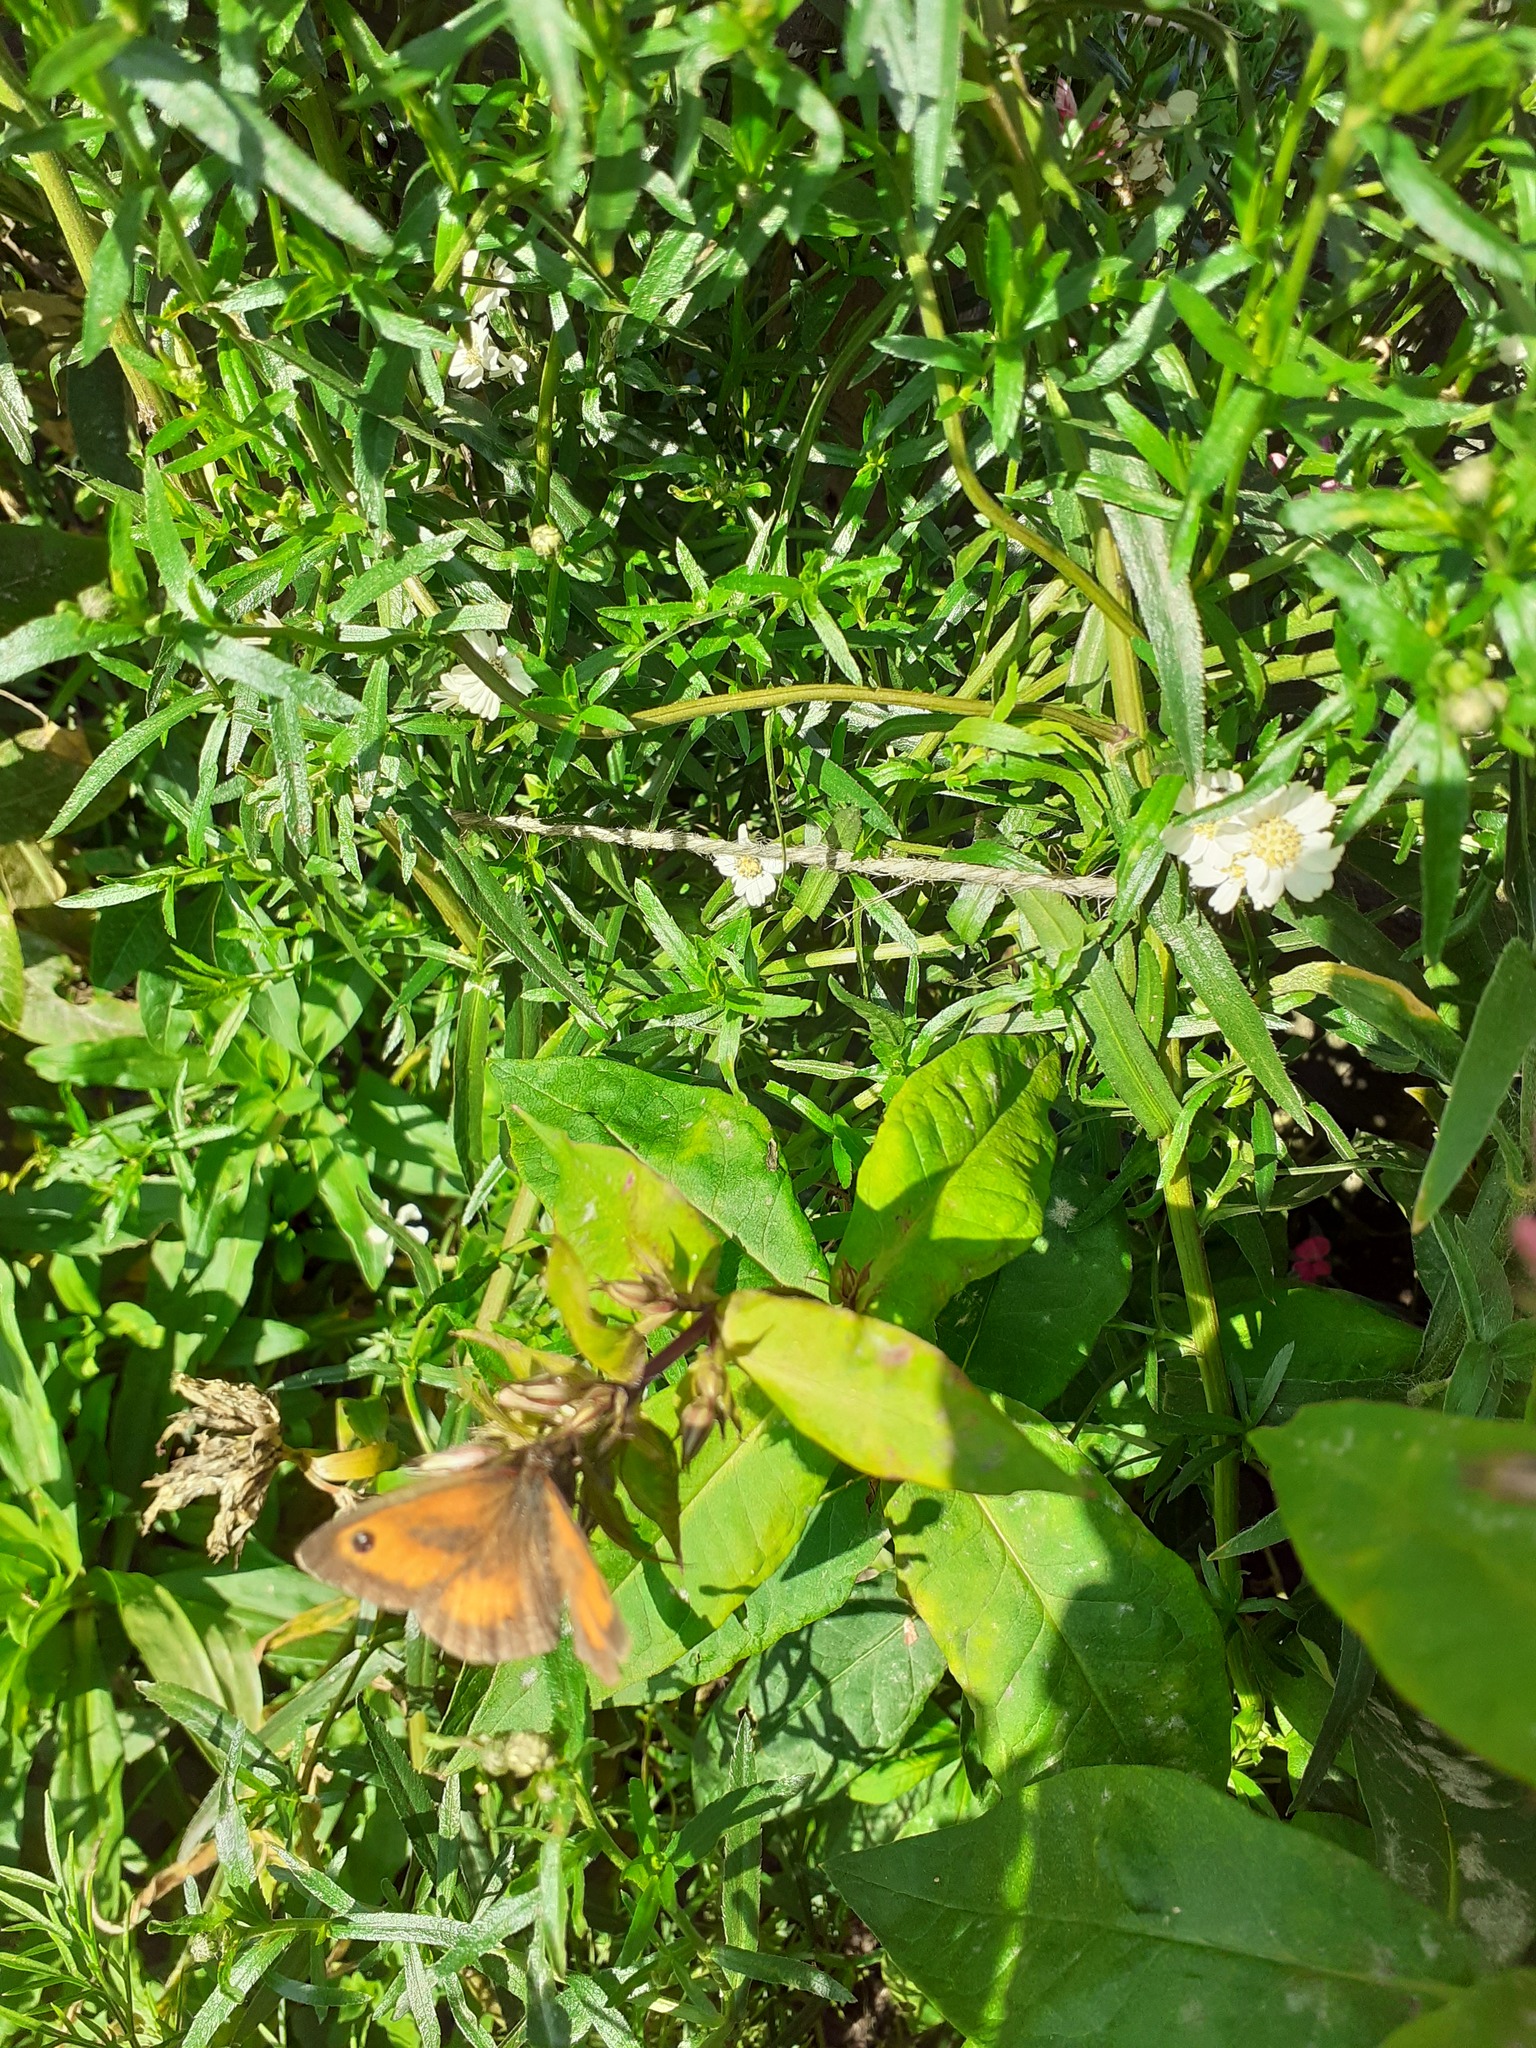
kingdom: Animalia
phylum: Arthropoda
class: Insecta
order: Lepidoptera
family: Nymphalidae
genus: Pyronia
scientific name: Pyronia tithonus
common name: Gatekeeper
